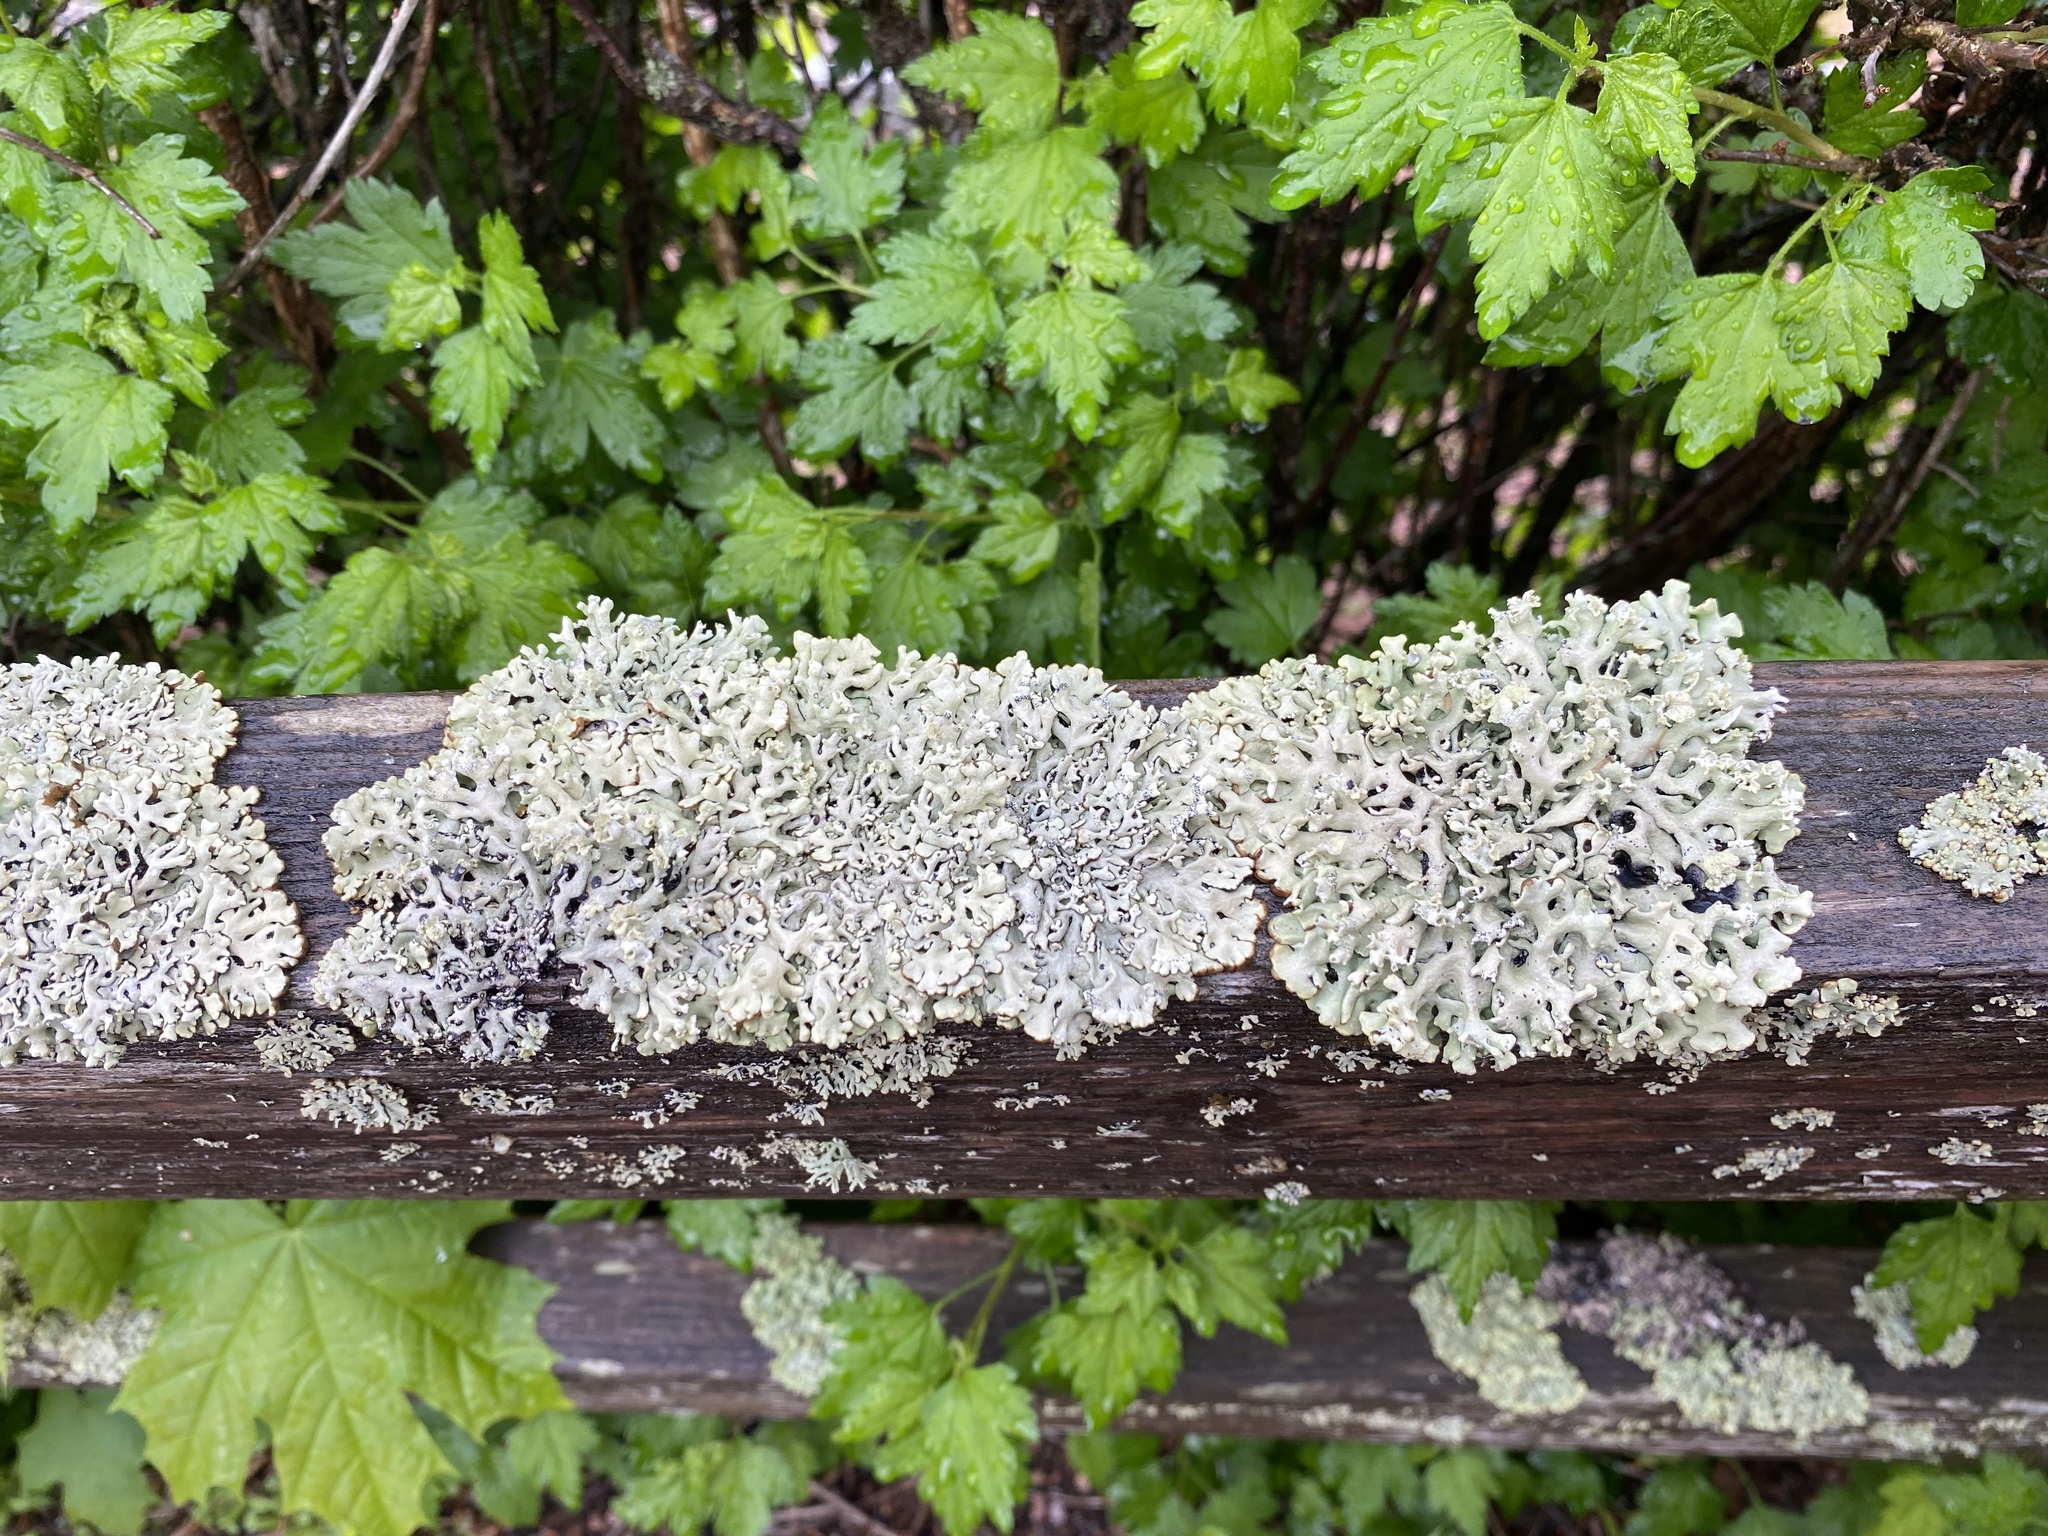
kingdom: Fungi
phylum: Ascomycota
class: Lecanoromycetes
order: Lecanorales
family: Parmeliaceae
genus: Hypogymnia
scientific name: Hypogymnia physodes
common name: Dark crottle
